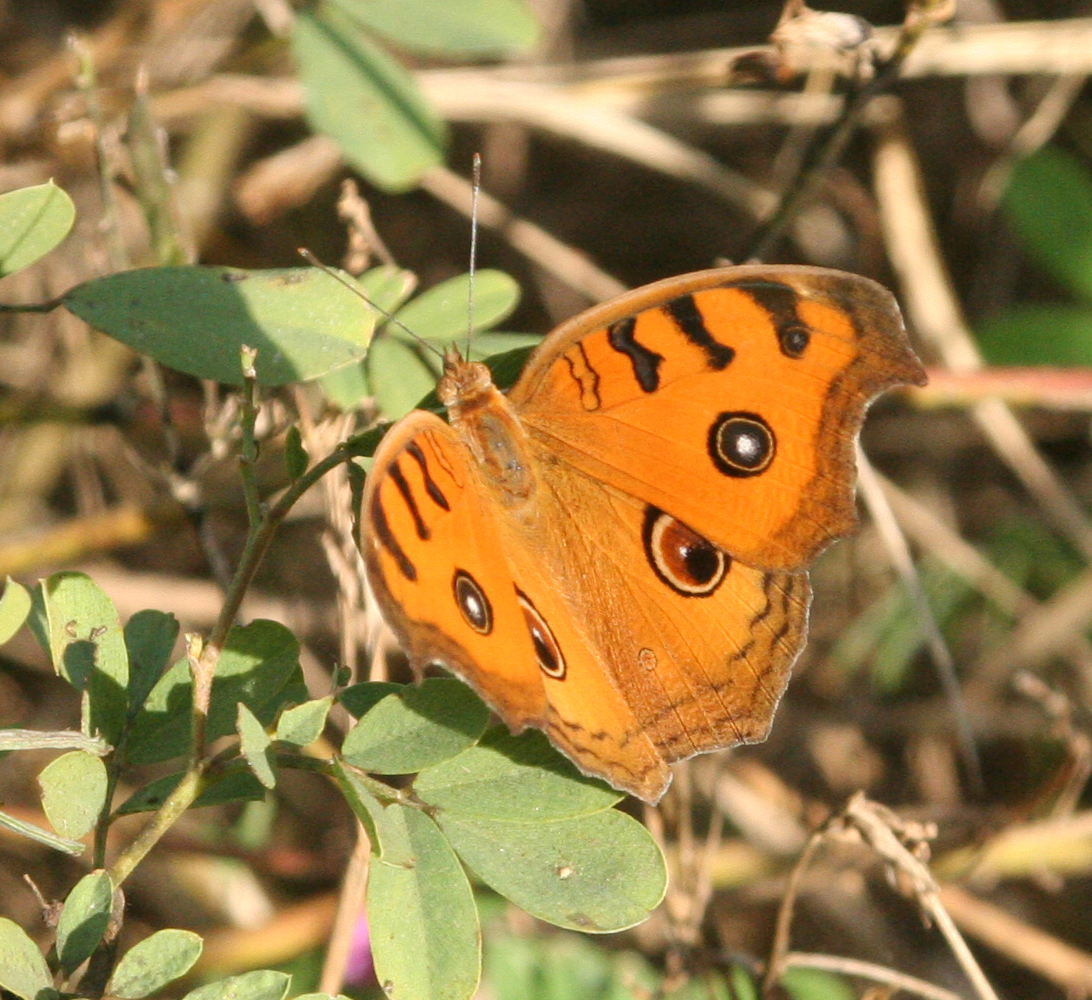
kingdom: Animalia
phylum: Arthropoda
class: Insecta
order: Lepidoptera
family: Nymphalidae
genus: Junonia
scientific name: Junonia almana
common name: Peacock pansy
